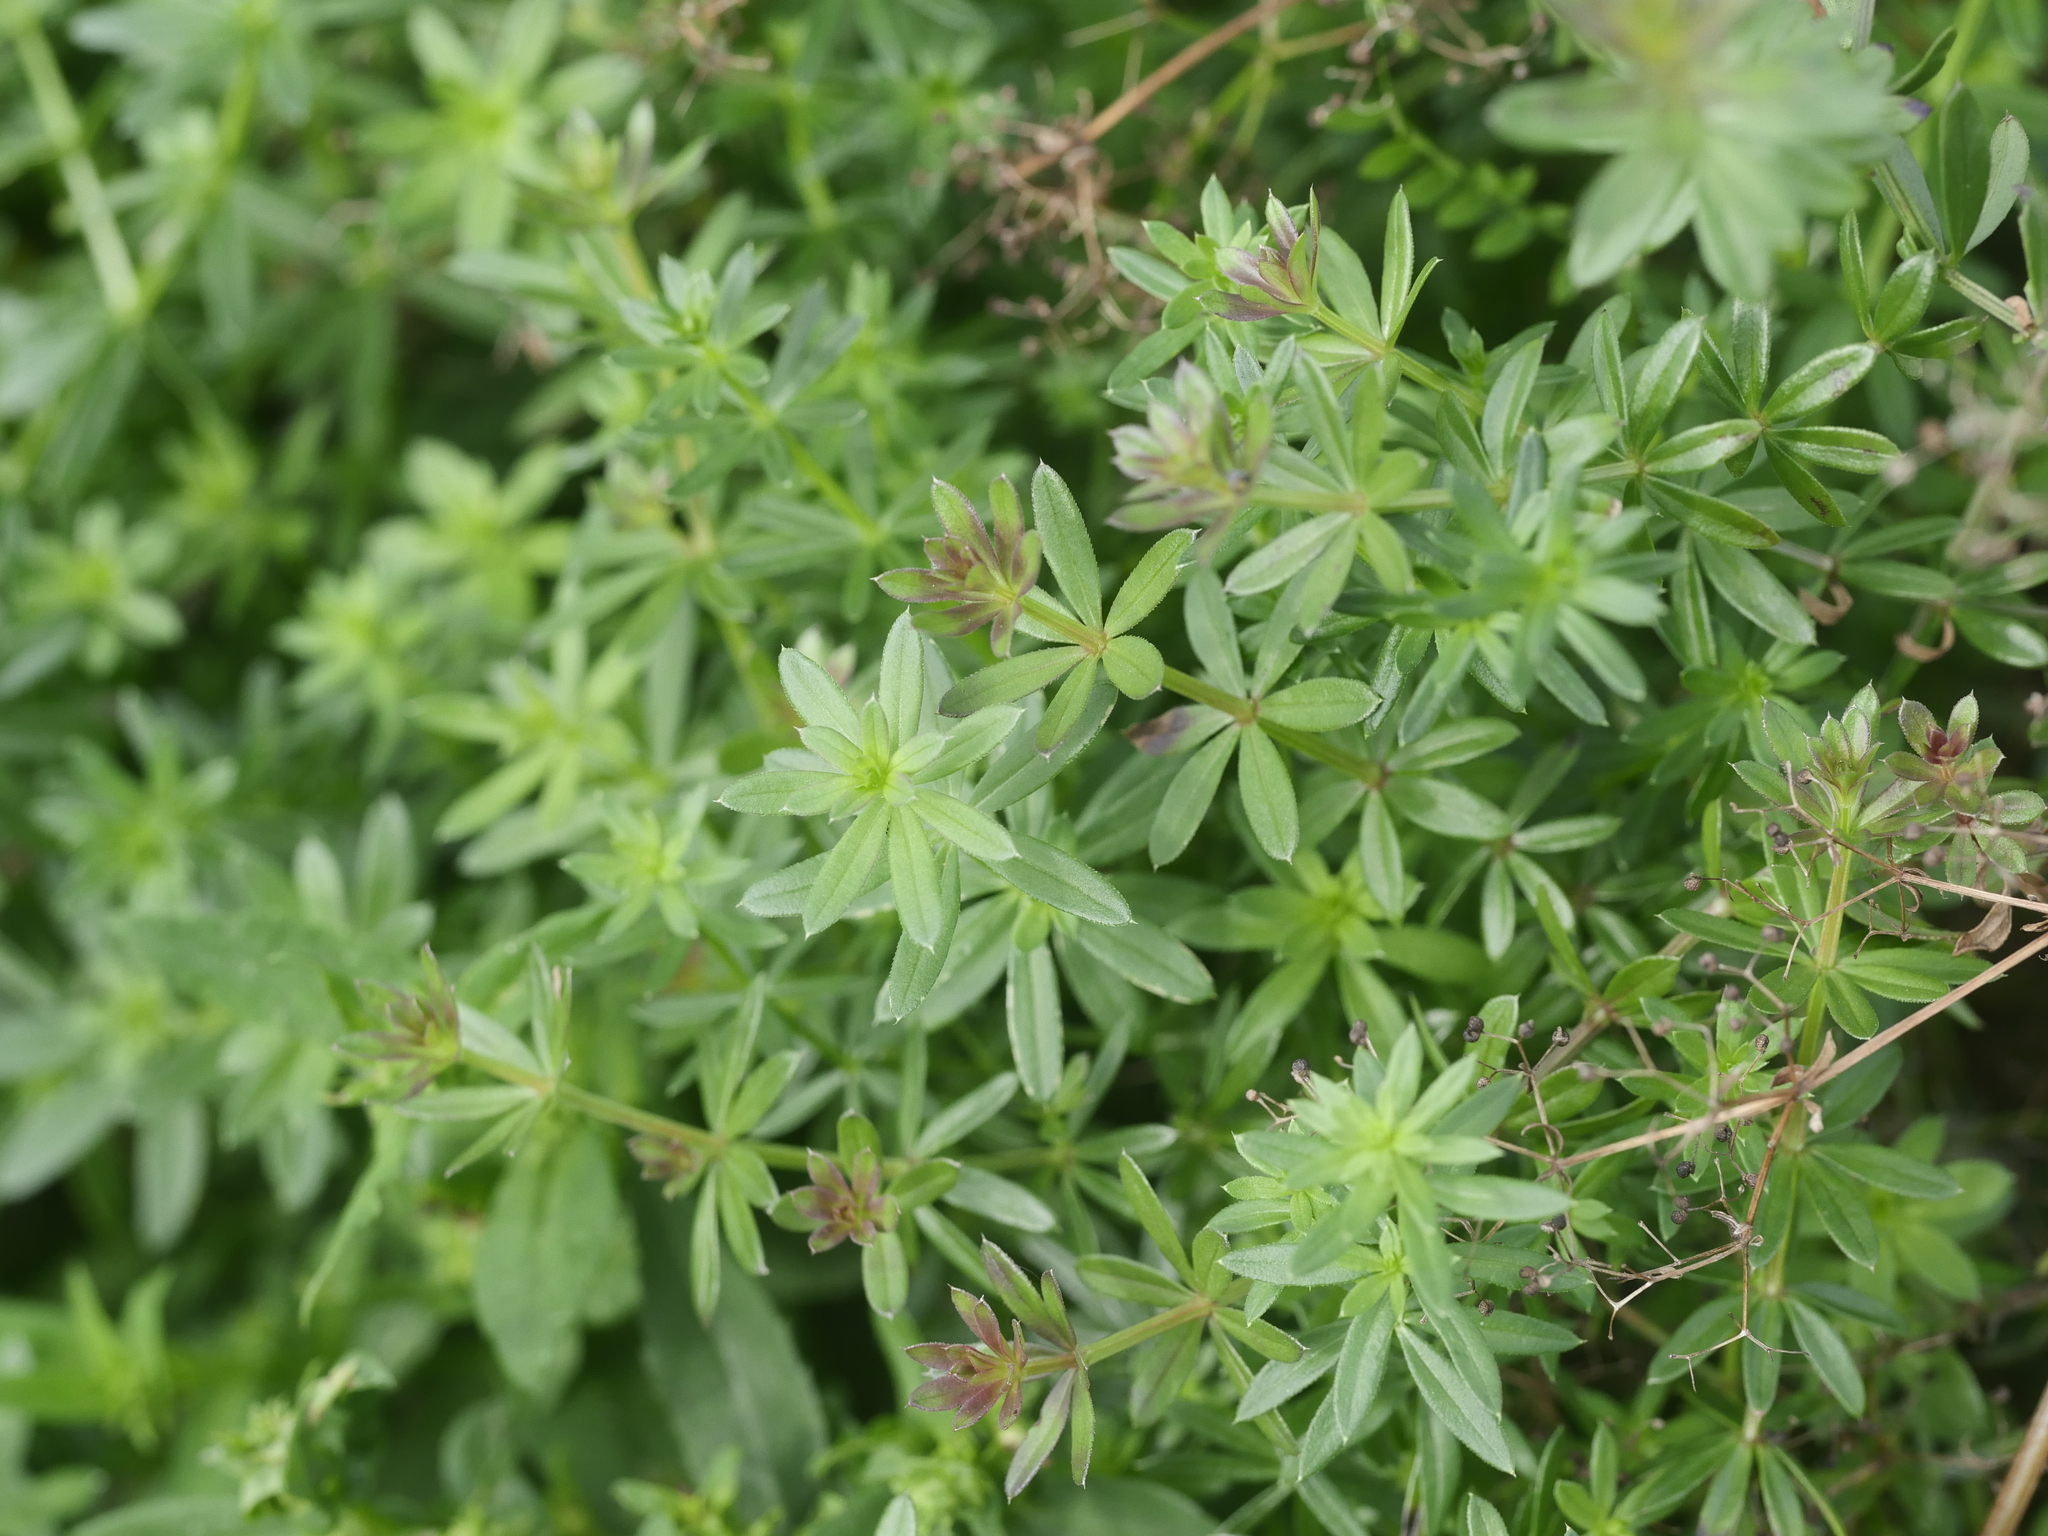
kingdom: Plantae
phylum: Tracheophyta
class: Magnoliopsida
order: Gentianales
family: Rubiaceae
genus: Galium
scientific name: Galium mollugo
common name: Hedge bedstraw
